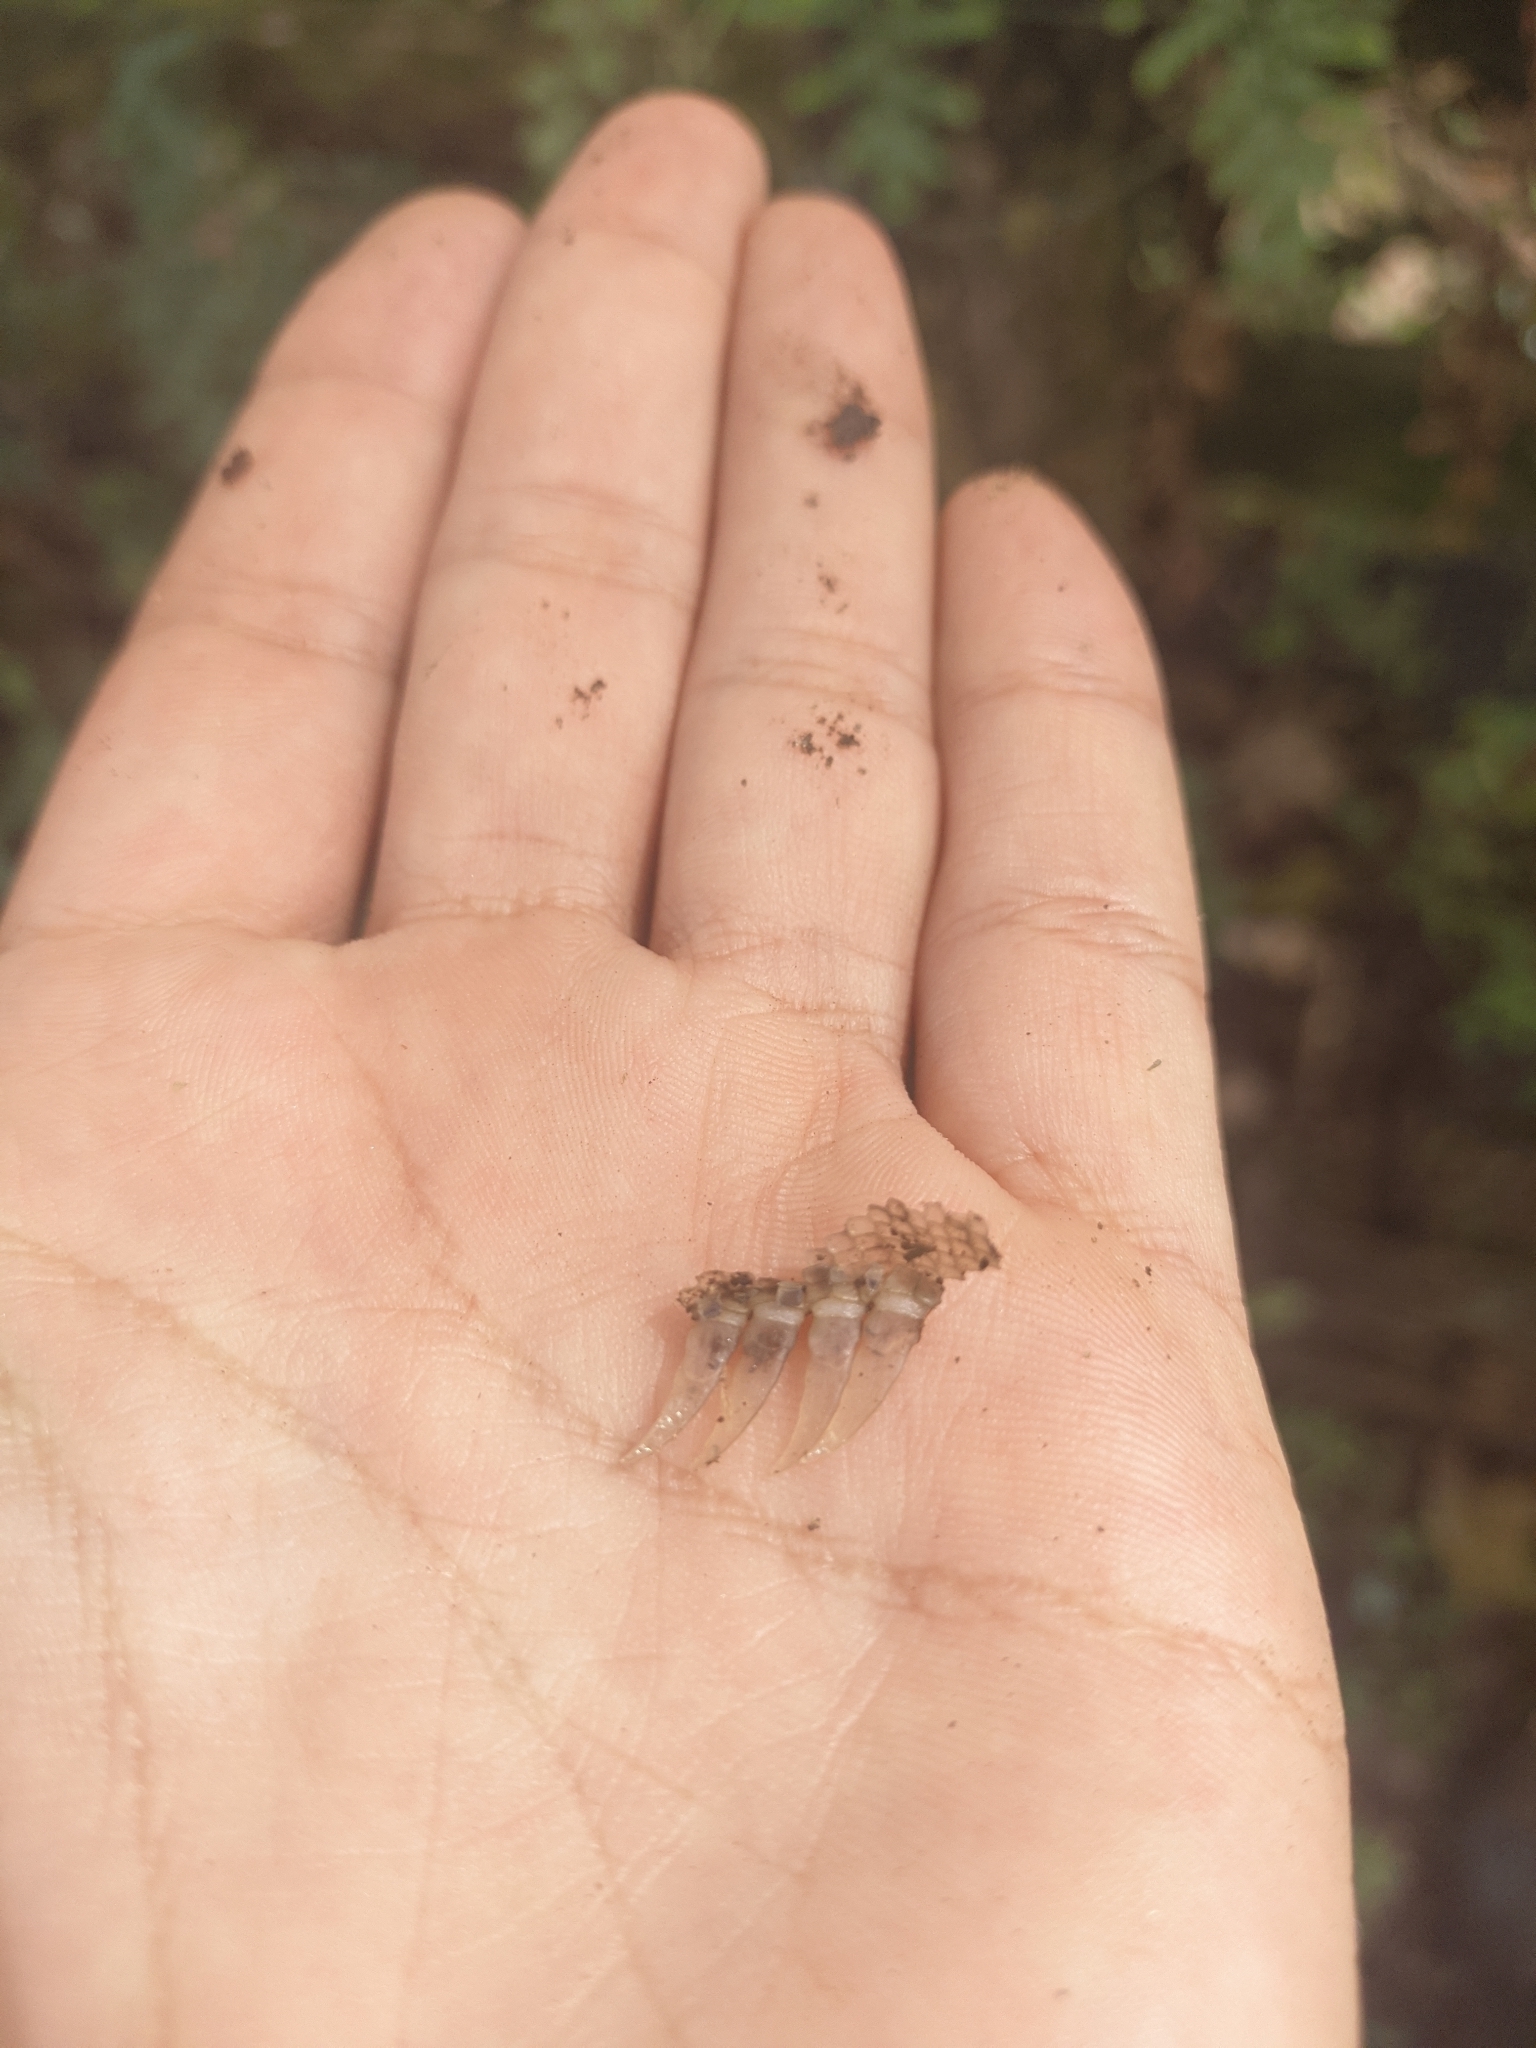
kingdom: Animalia
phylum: Chordata
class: Squamata
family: Iguanidae
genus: Iguana
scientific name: Iguana iguana
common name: Green iguana
